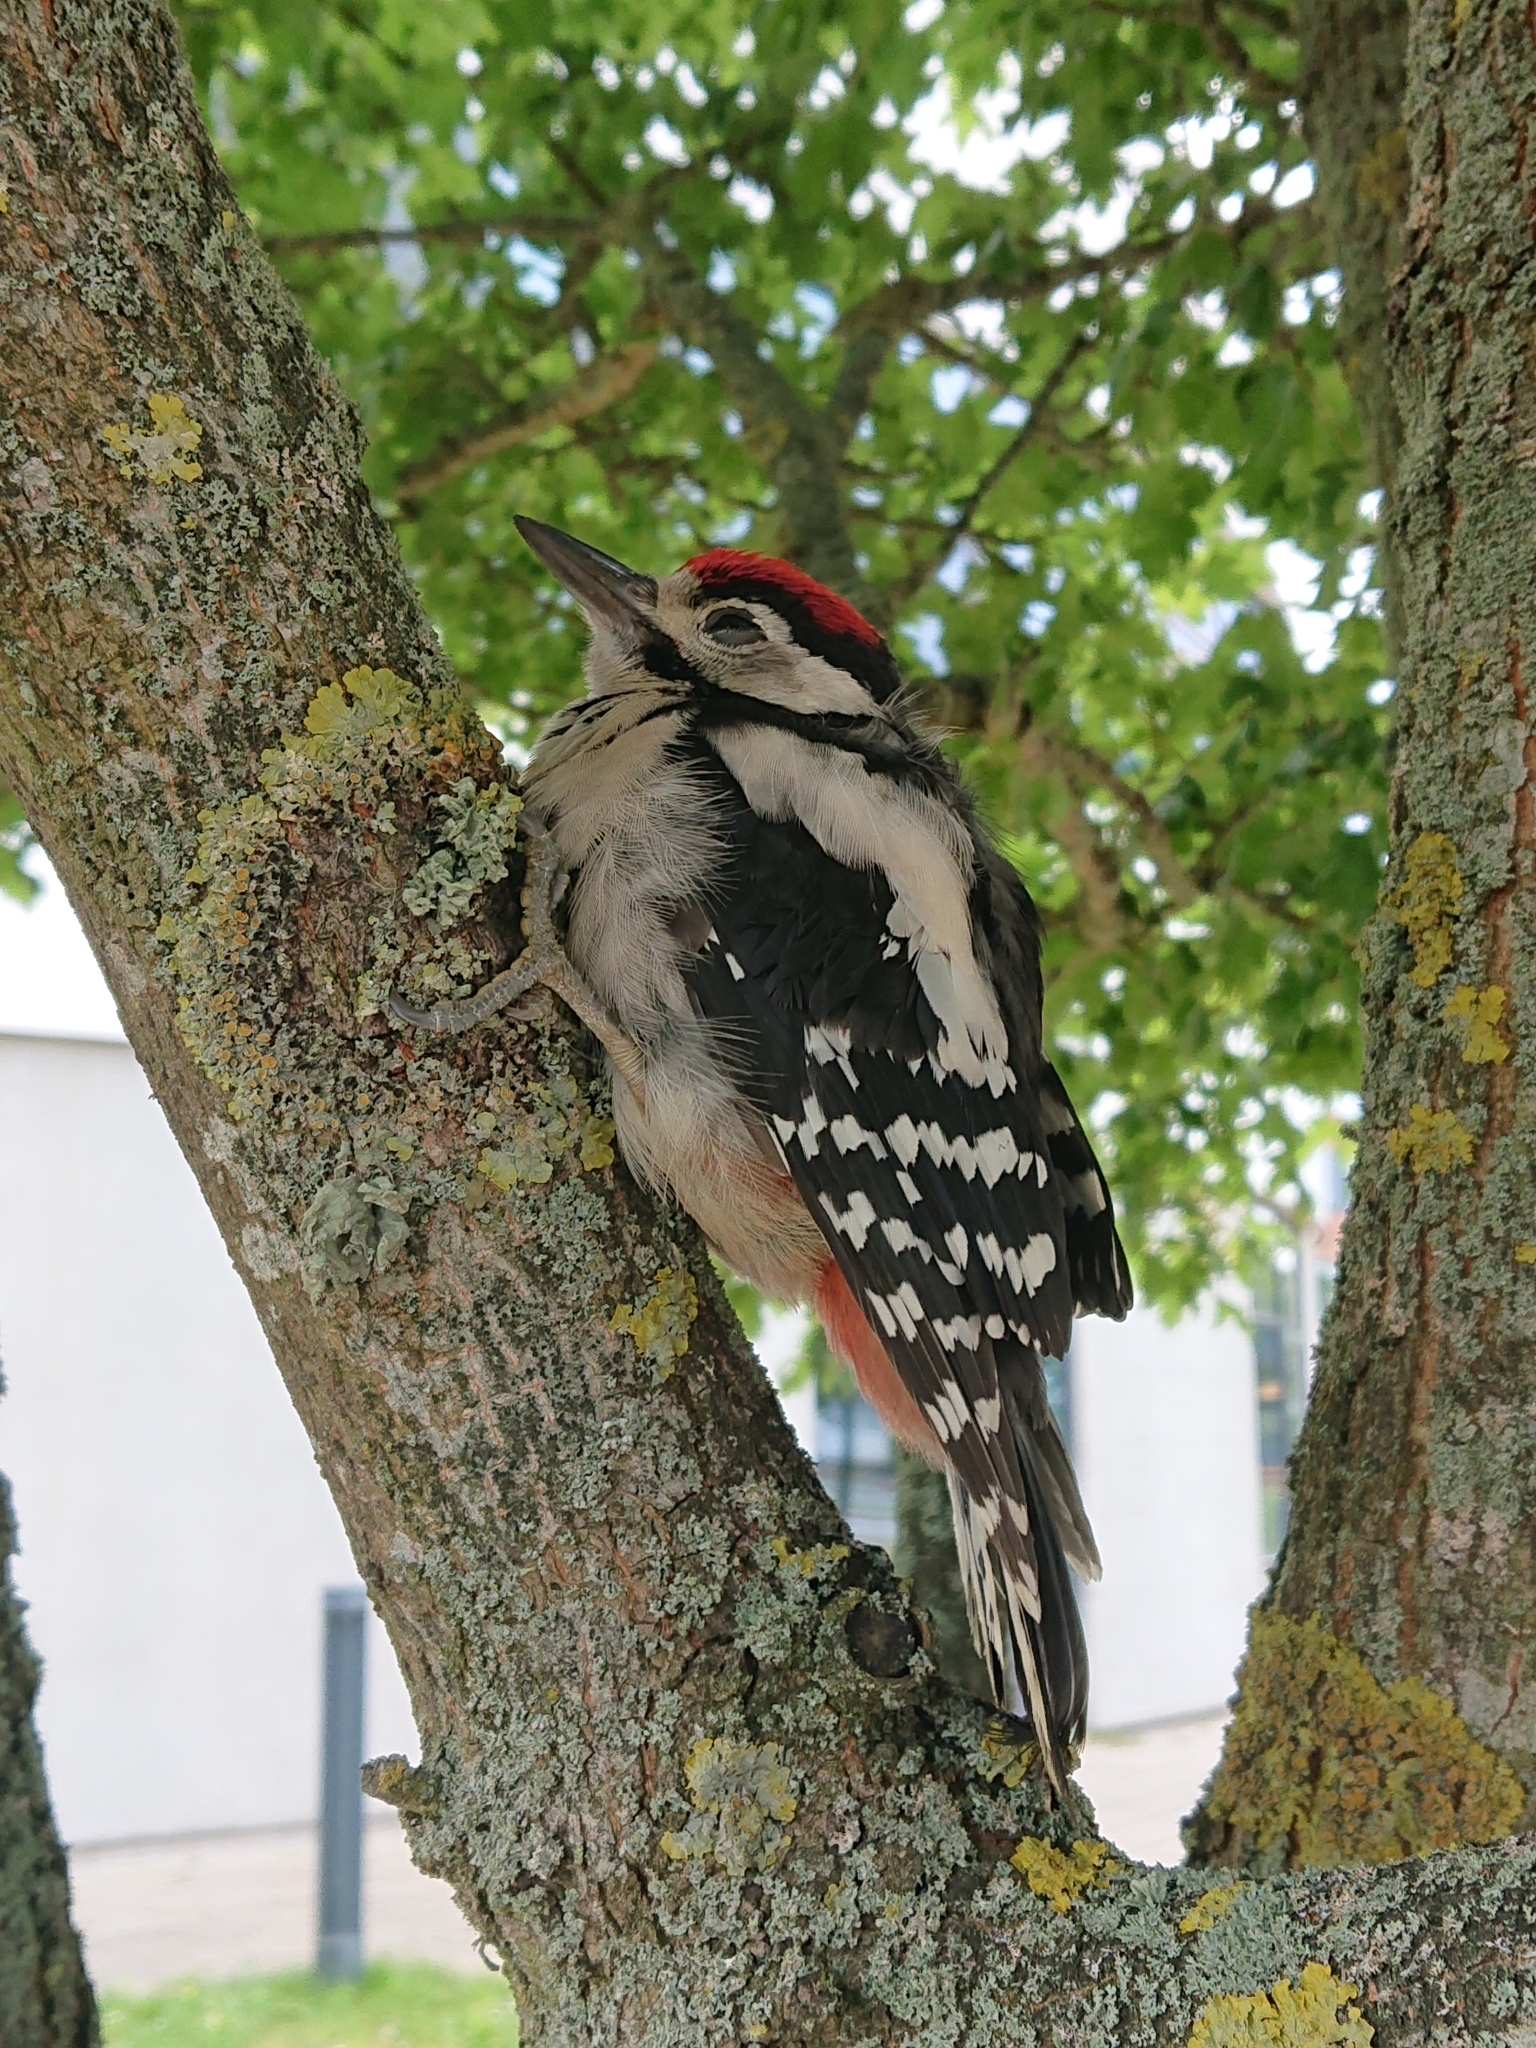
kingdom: Animalia
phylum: Chordata
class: Aves
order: Piciformes
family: Picidae
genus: Dendrocopos
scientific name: Dendrocopos major
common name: Great spotted woodpecker
